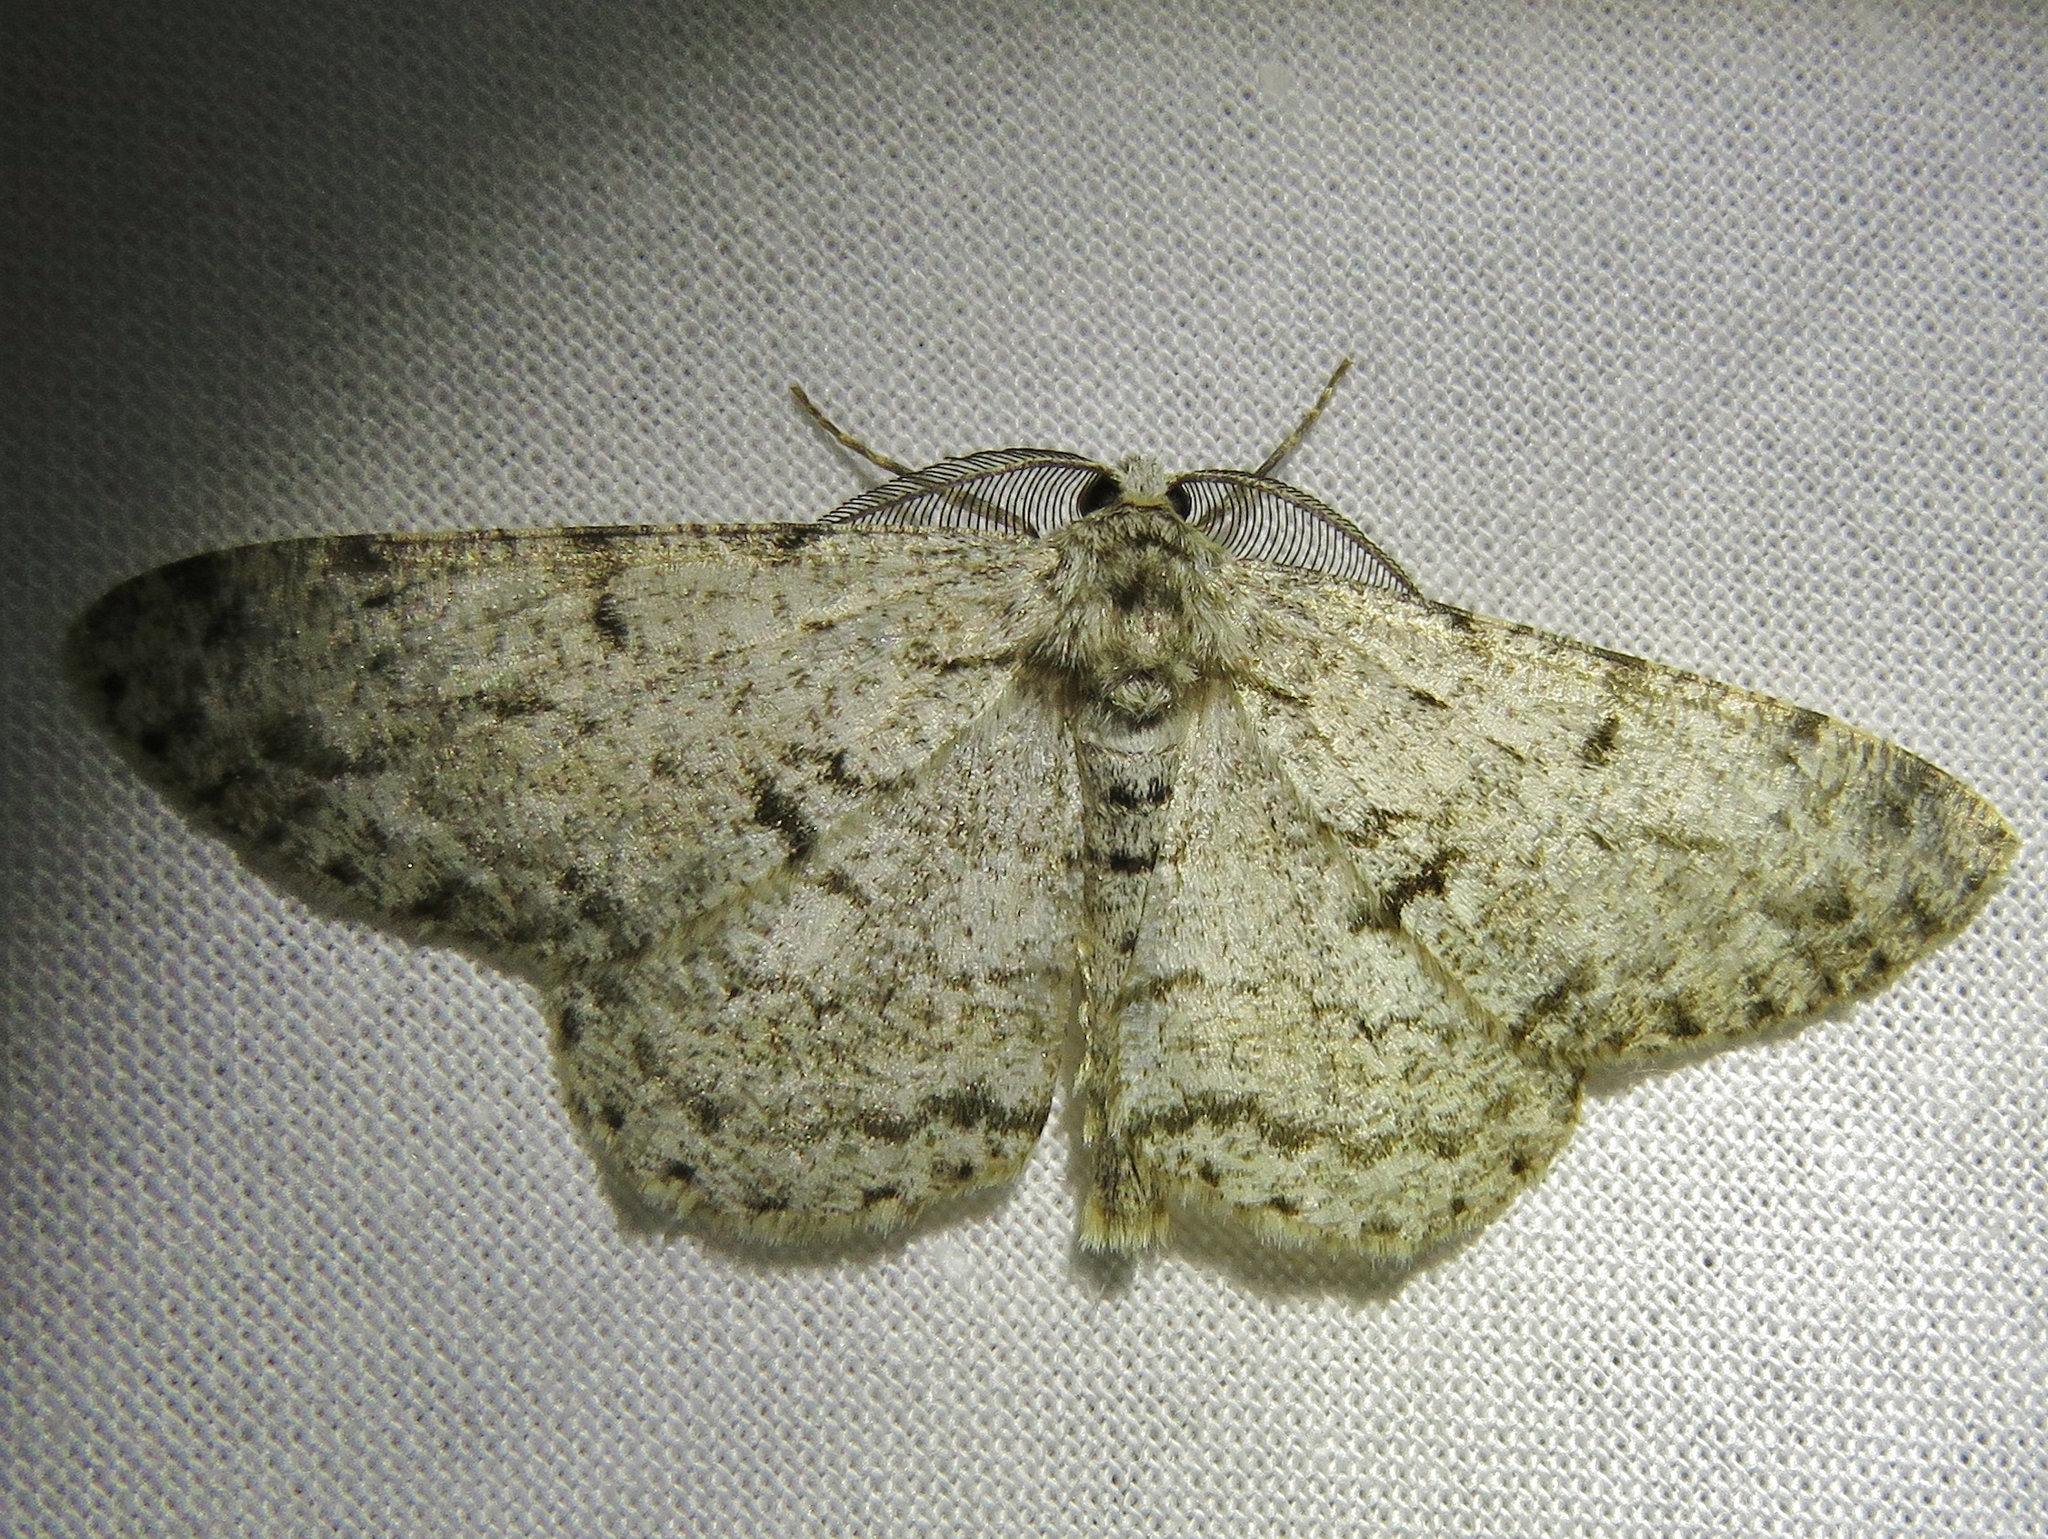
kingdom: Animalia
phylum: Arthropoda
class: Insecta
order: Lepidoptera
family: Geometridae
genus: Hypomecis
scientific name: Hypomecis roboraria
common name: Great oak beauty
